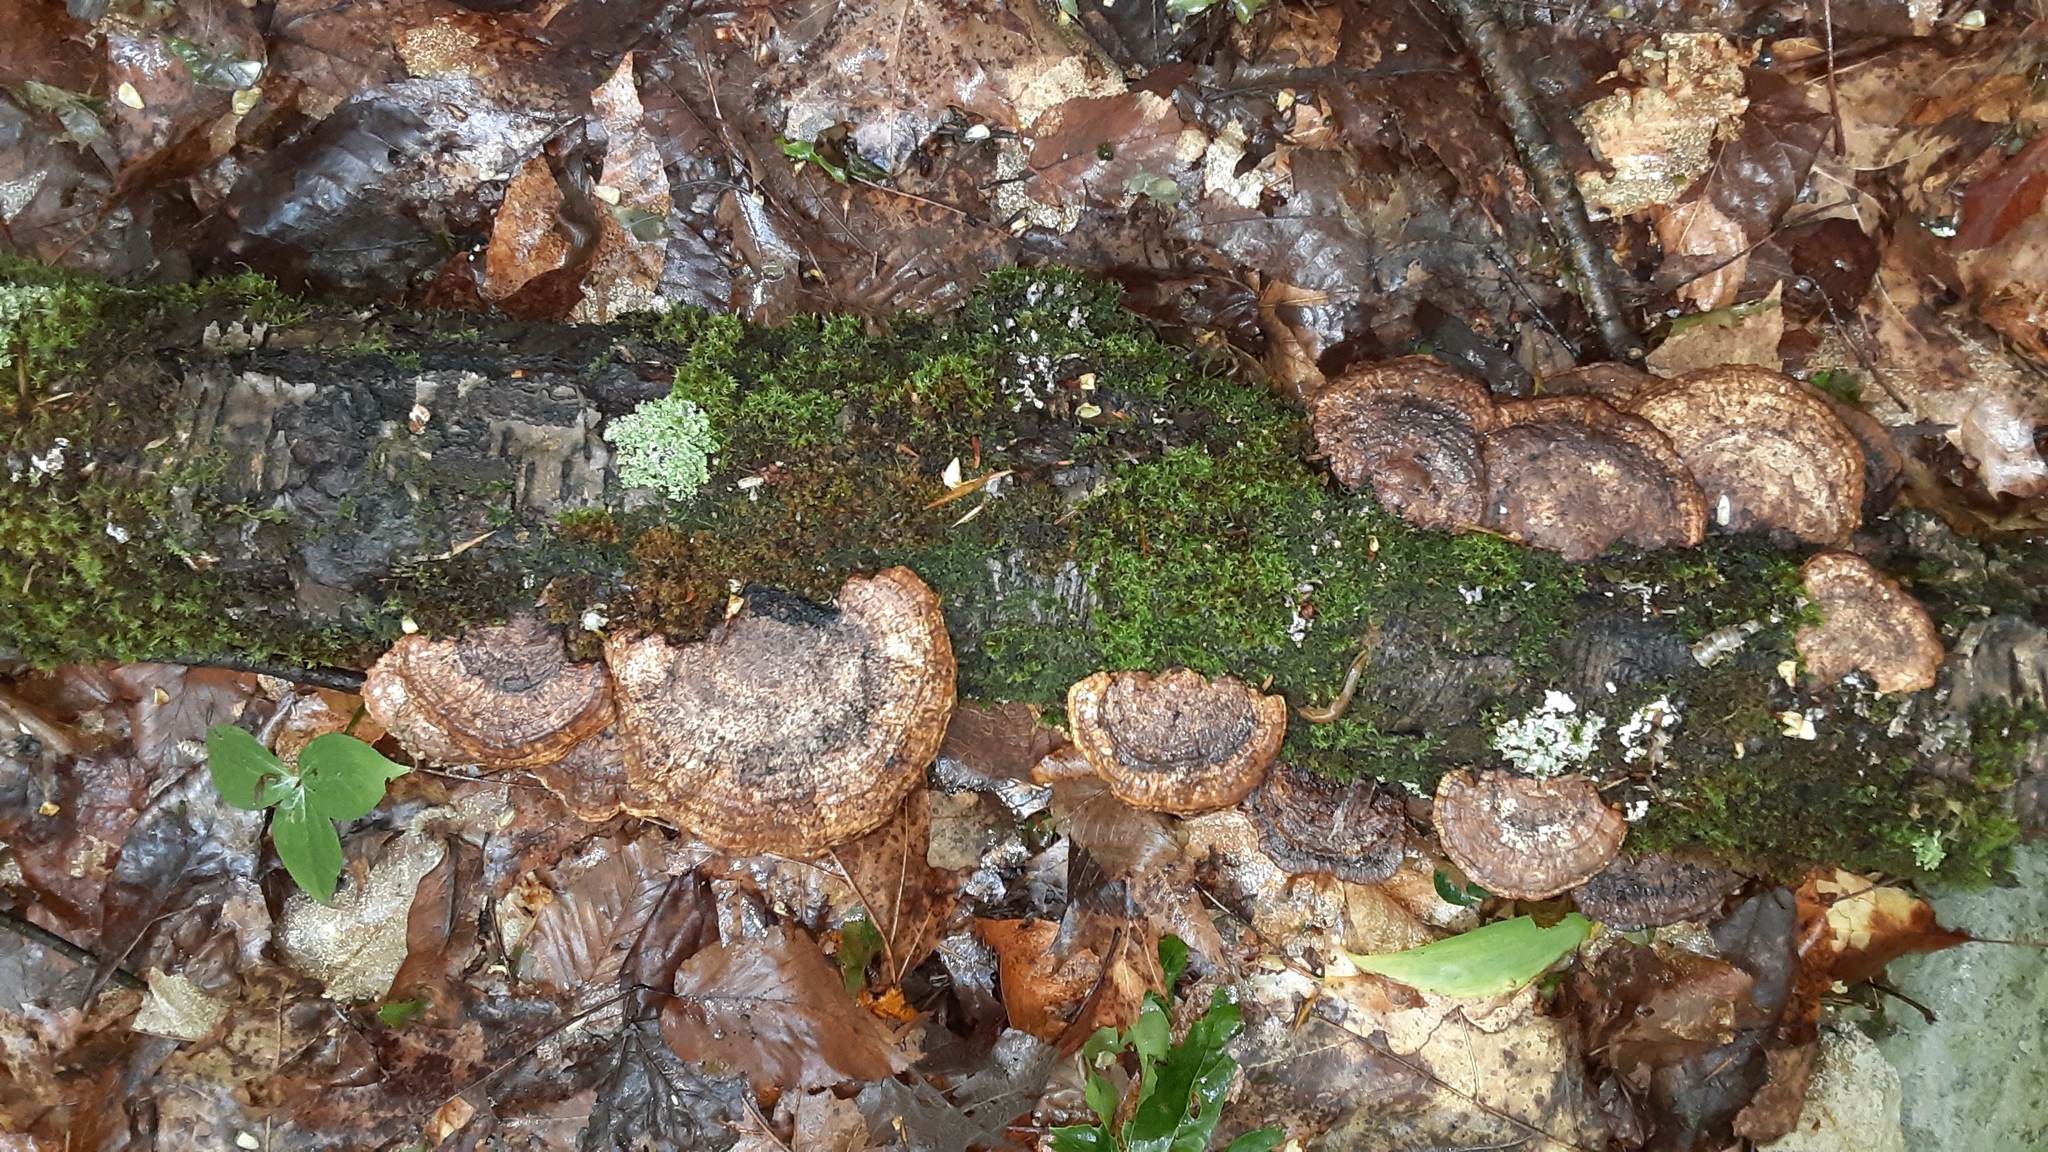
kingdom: Fungi
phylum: Basidiomycota
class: Agaricomycetes
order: Polyporales
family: Polyporaceae
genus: Daedaleopsis
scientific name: Daedaleopsis confragosa
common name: Blushing bracket
